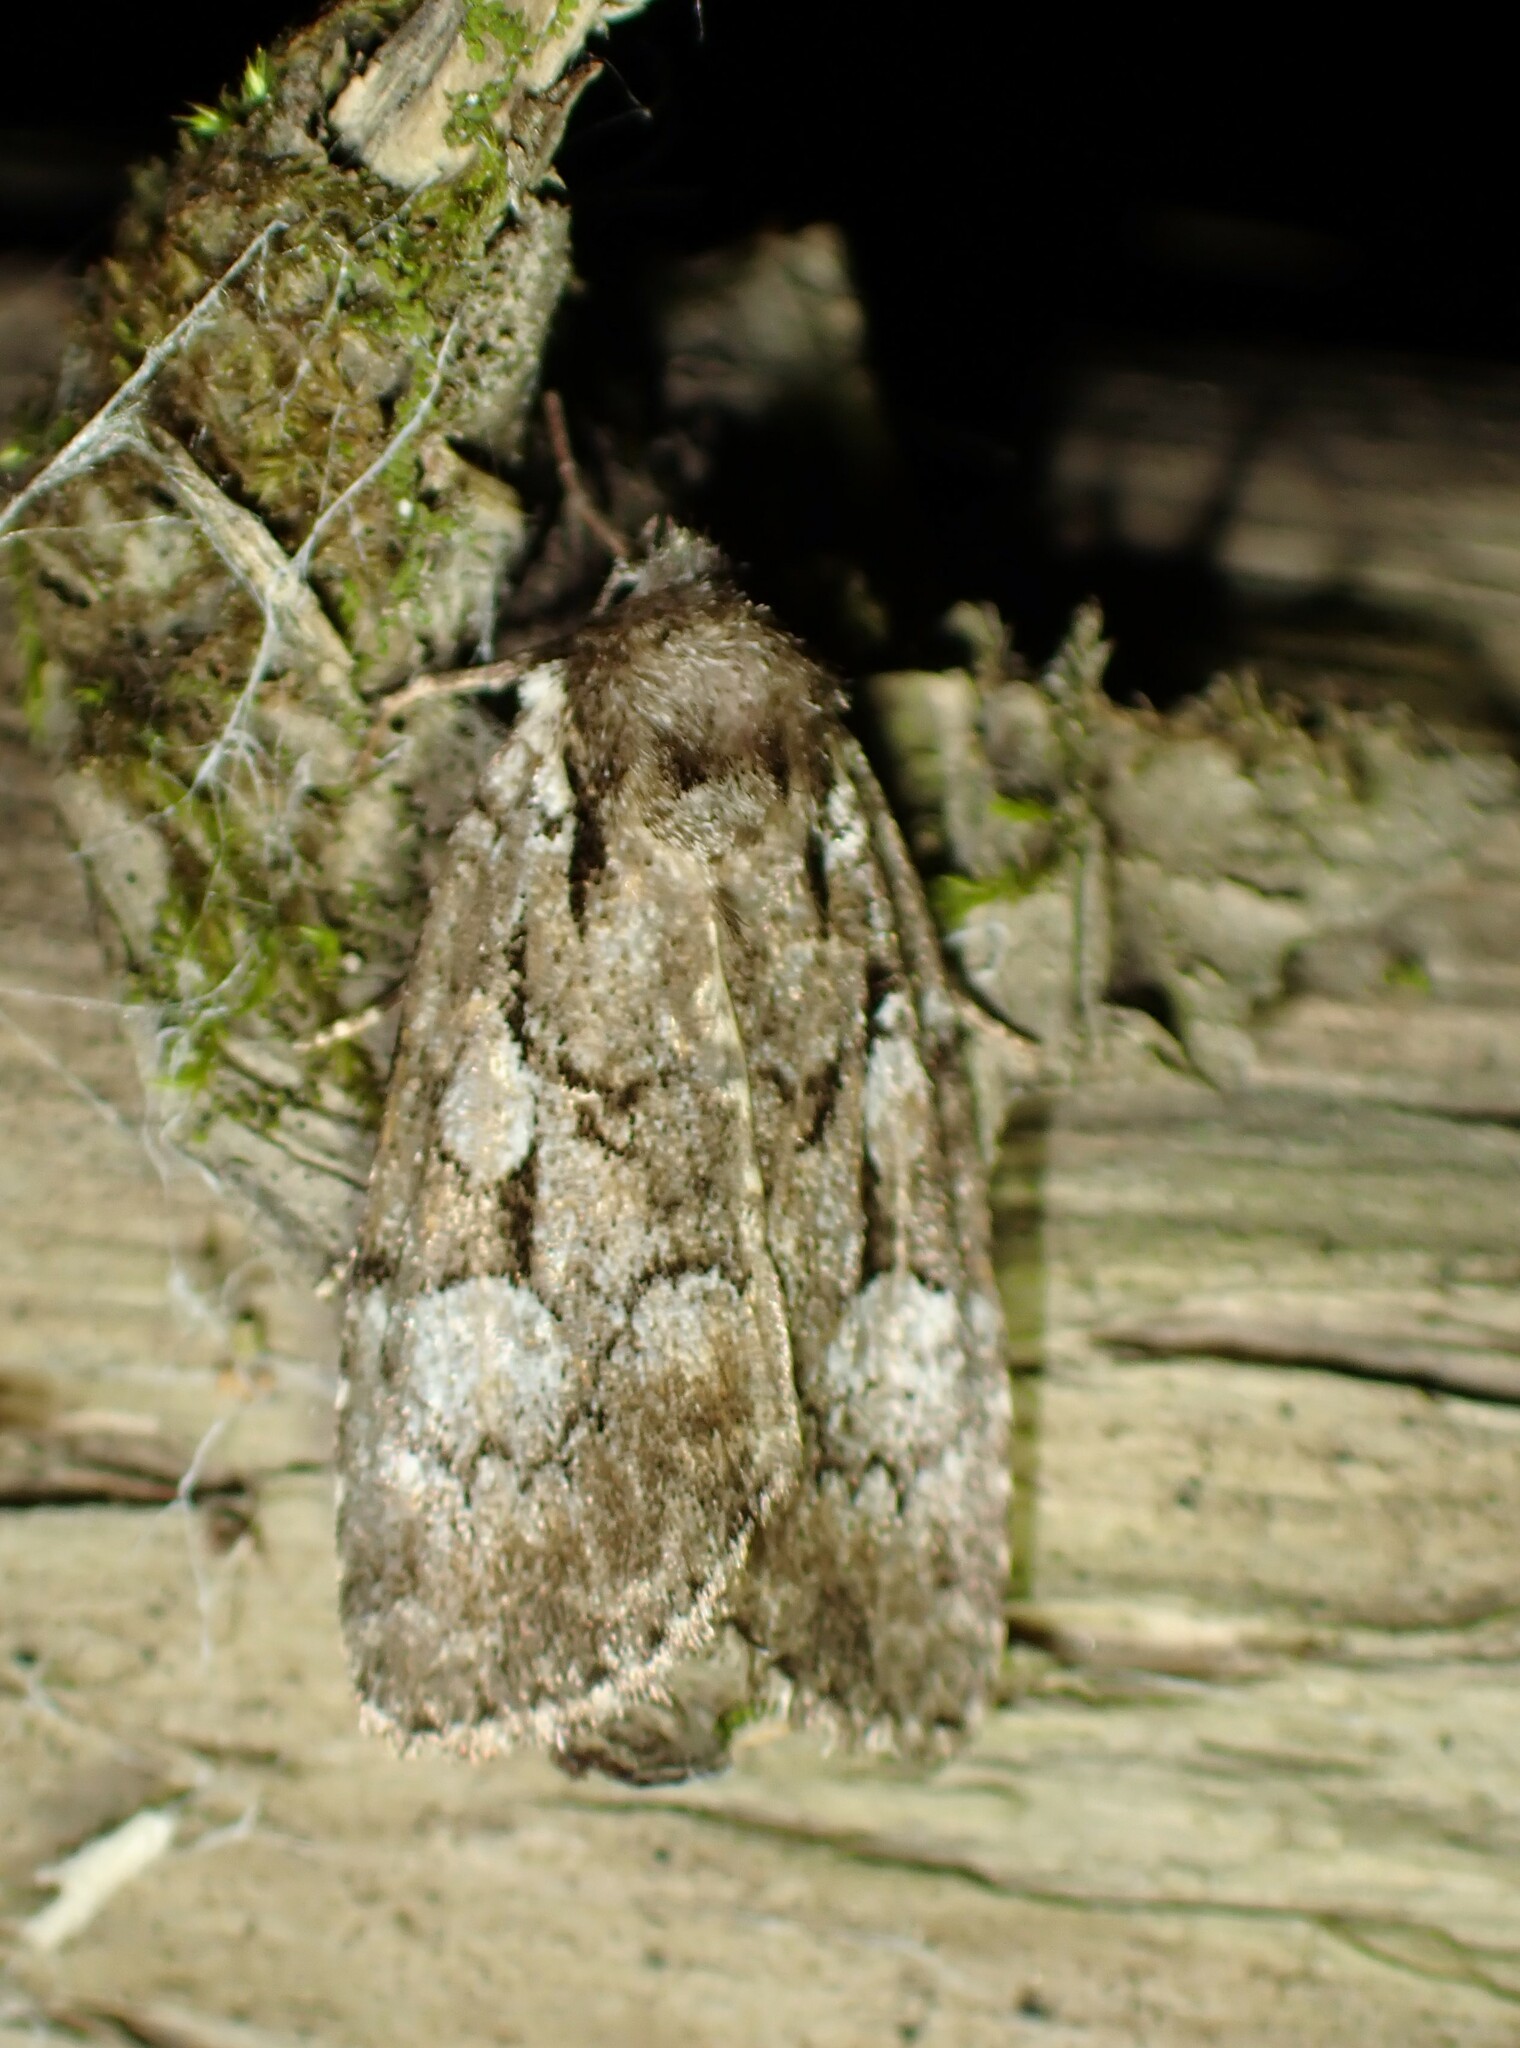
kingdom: Animalia
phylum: Arthropoda
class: Insecta
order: Lepidoptera
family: Noctuidae
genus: Aplectoides
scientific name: Aplectoides condita
